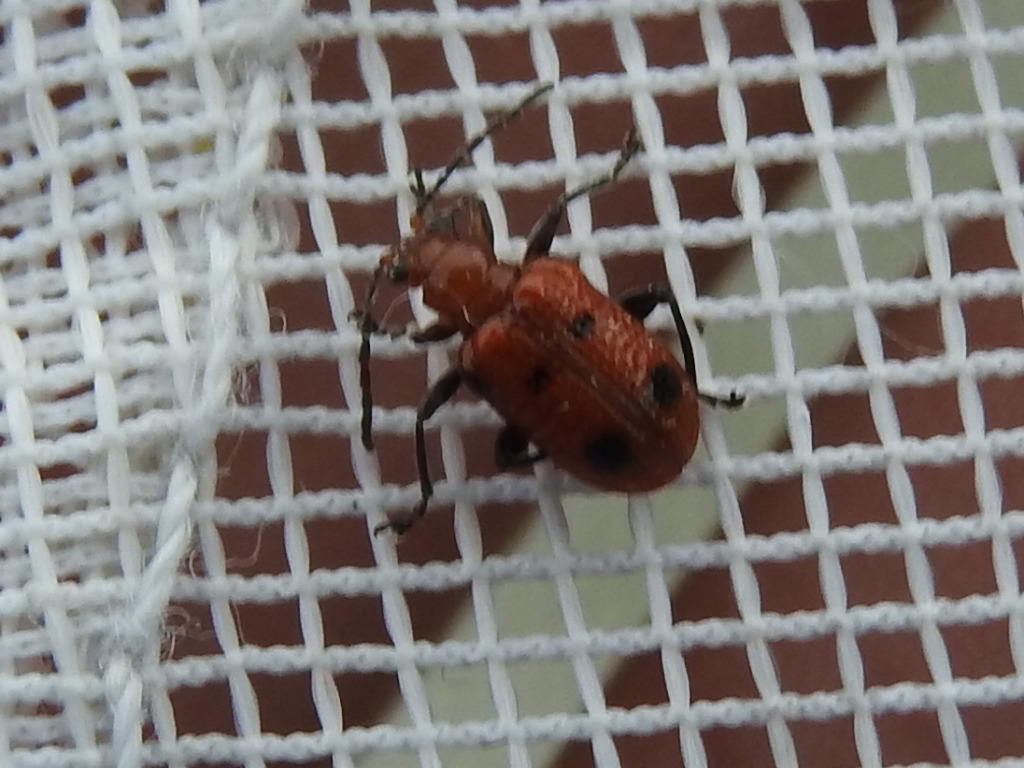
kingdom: Animalia
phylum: Arthropoda
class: Insecta
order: Coleoptera
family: Chrysomelidae
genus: Neolema
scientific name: Neolema quadriguttata
